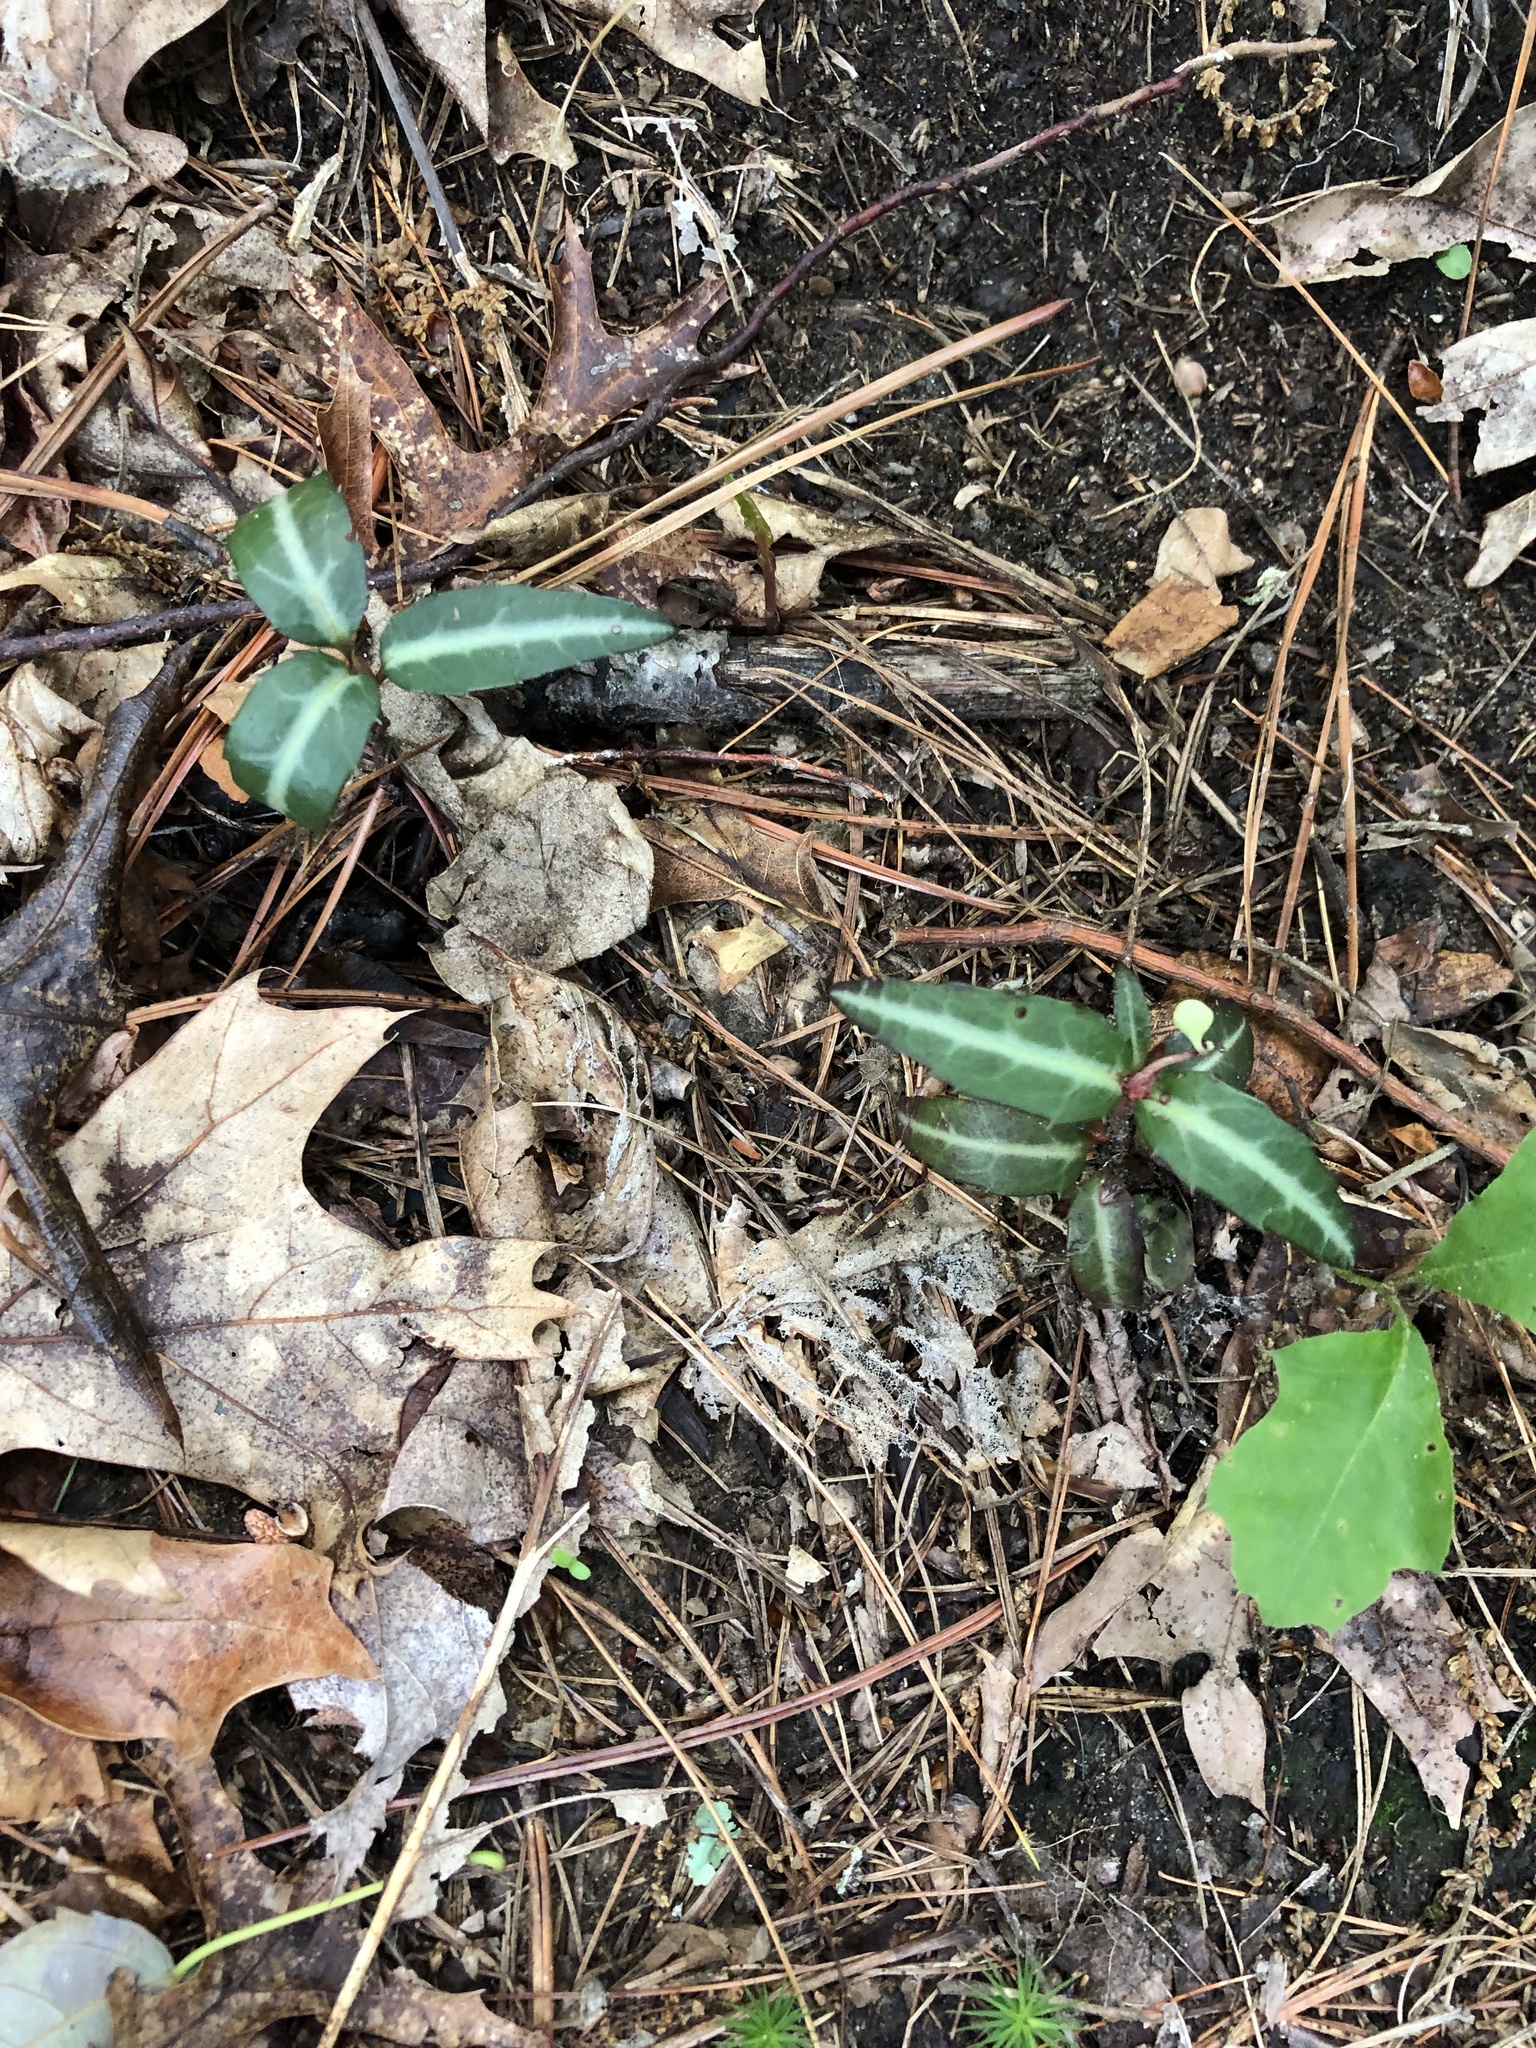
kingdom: Plantae
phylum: Tracheophyta
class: Magnoliopsida
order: Ericales
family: Ericaceae
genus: Chimaphila
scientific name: Chimaphila maculata
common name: Spotted pipsissewa
